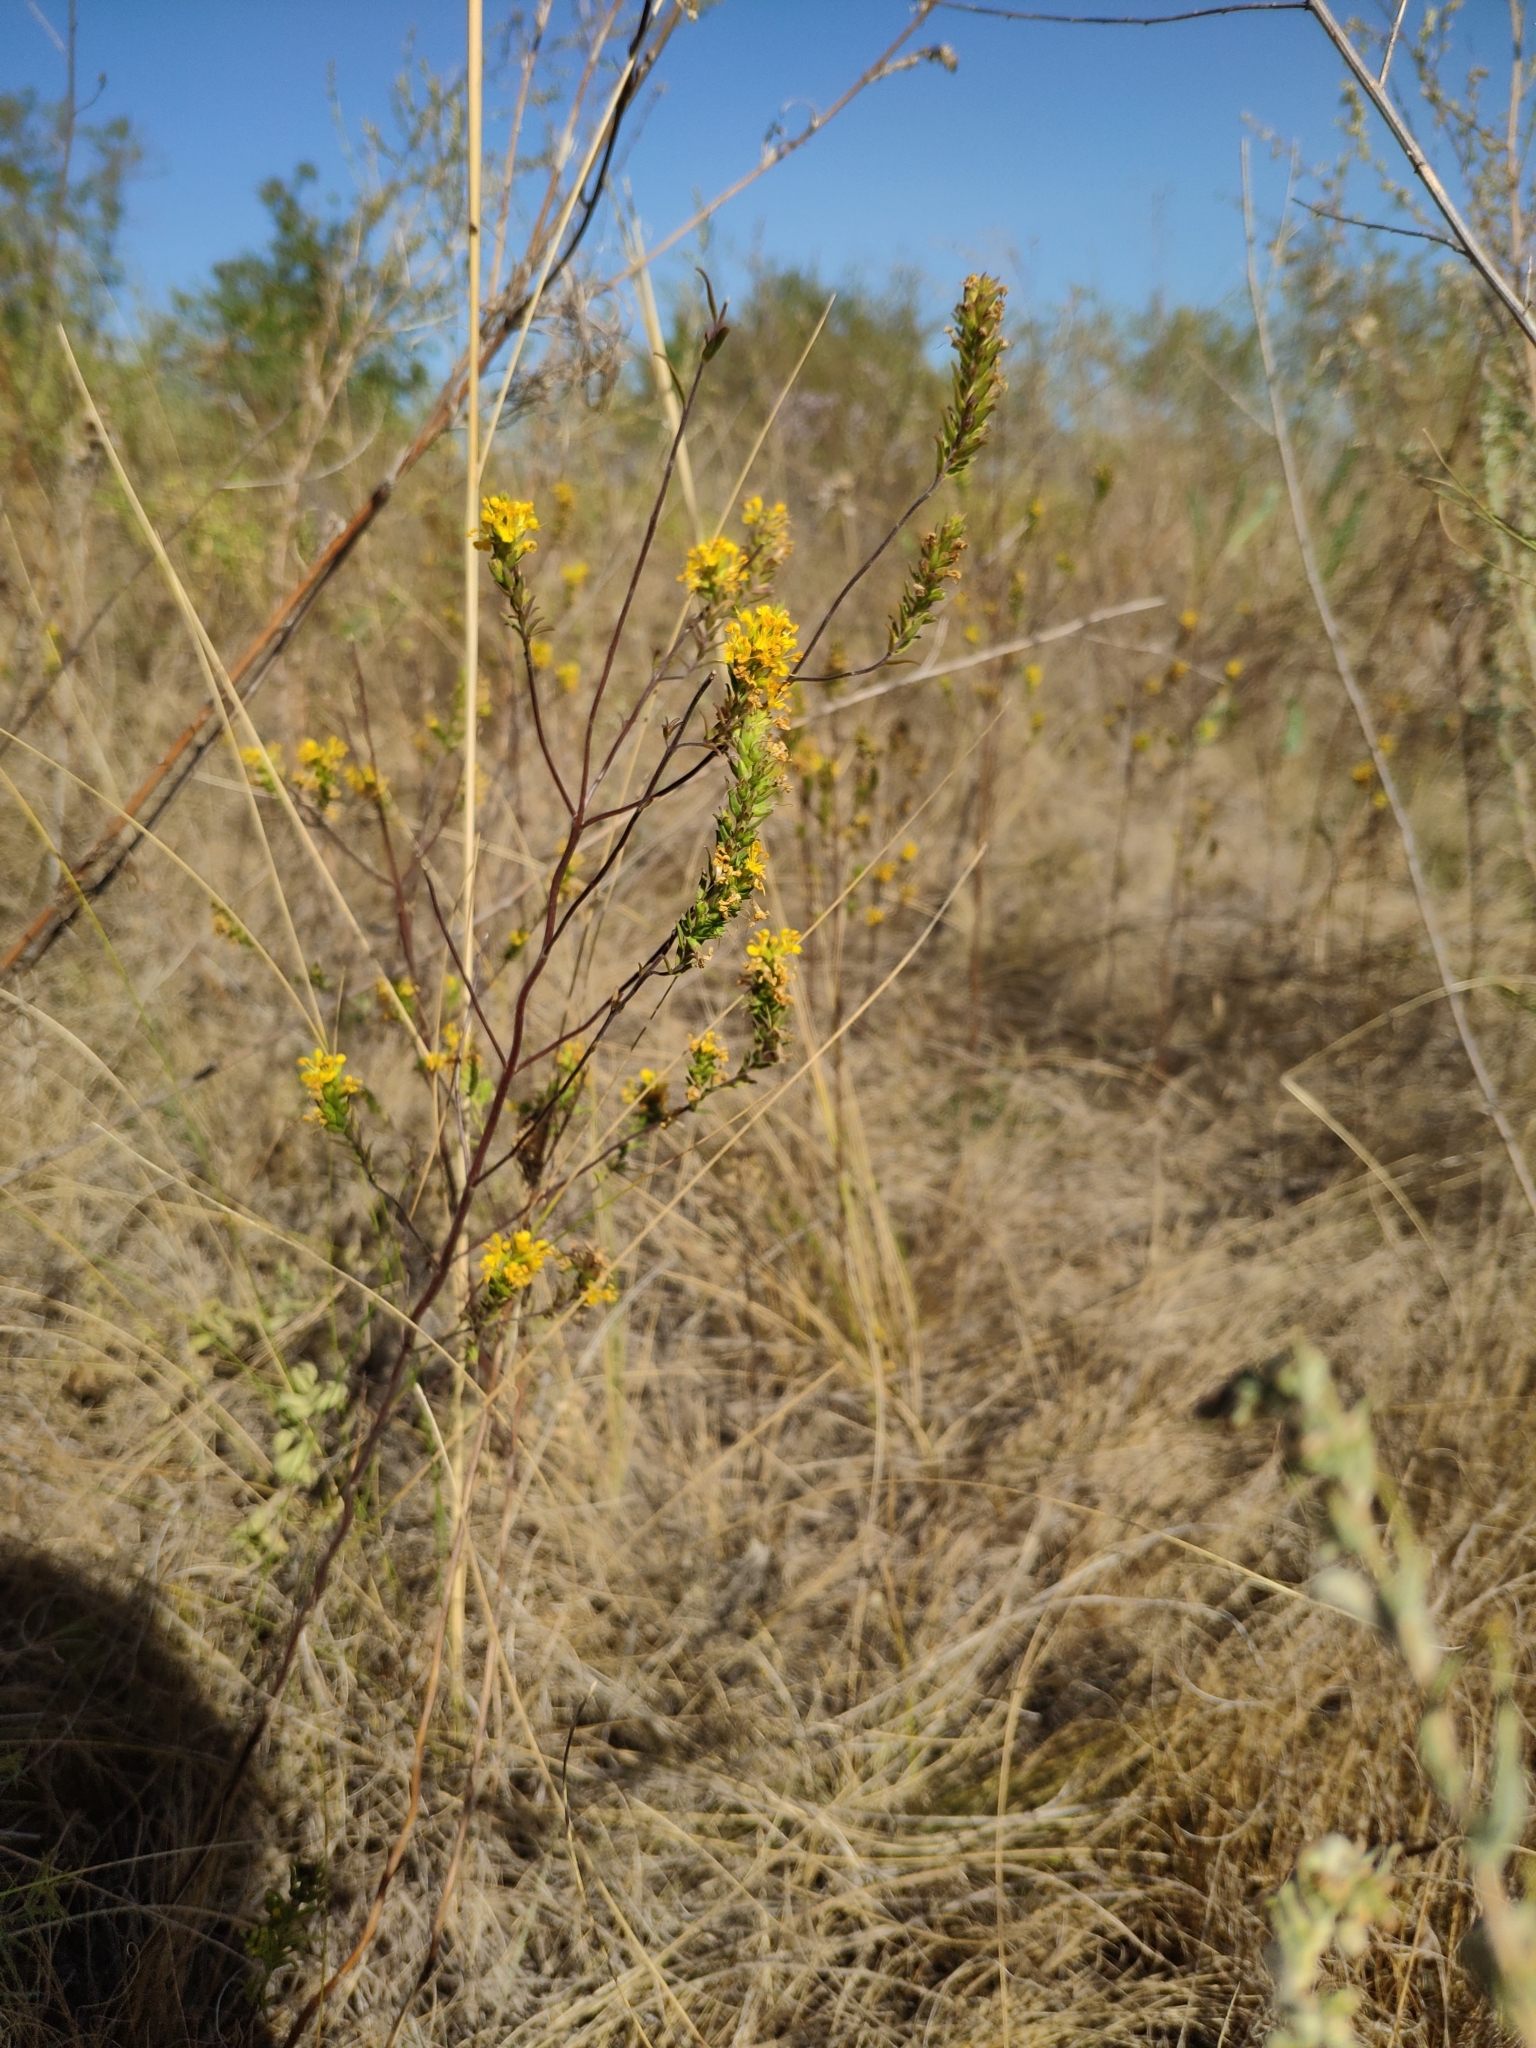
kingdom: Plantae
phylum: Tracheophyta
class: Magnoliopsida
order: Lamiales
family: Orobanchaceae
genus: Odontites
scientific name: Odontites luteus
